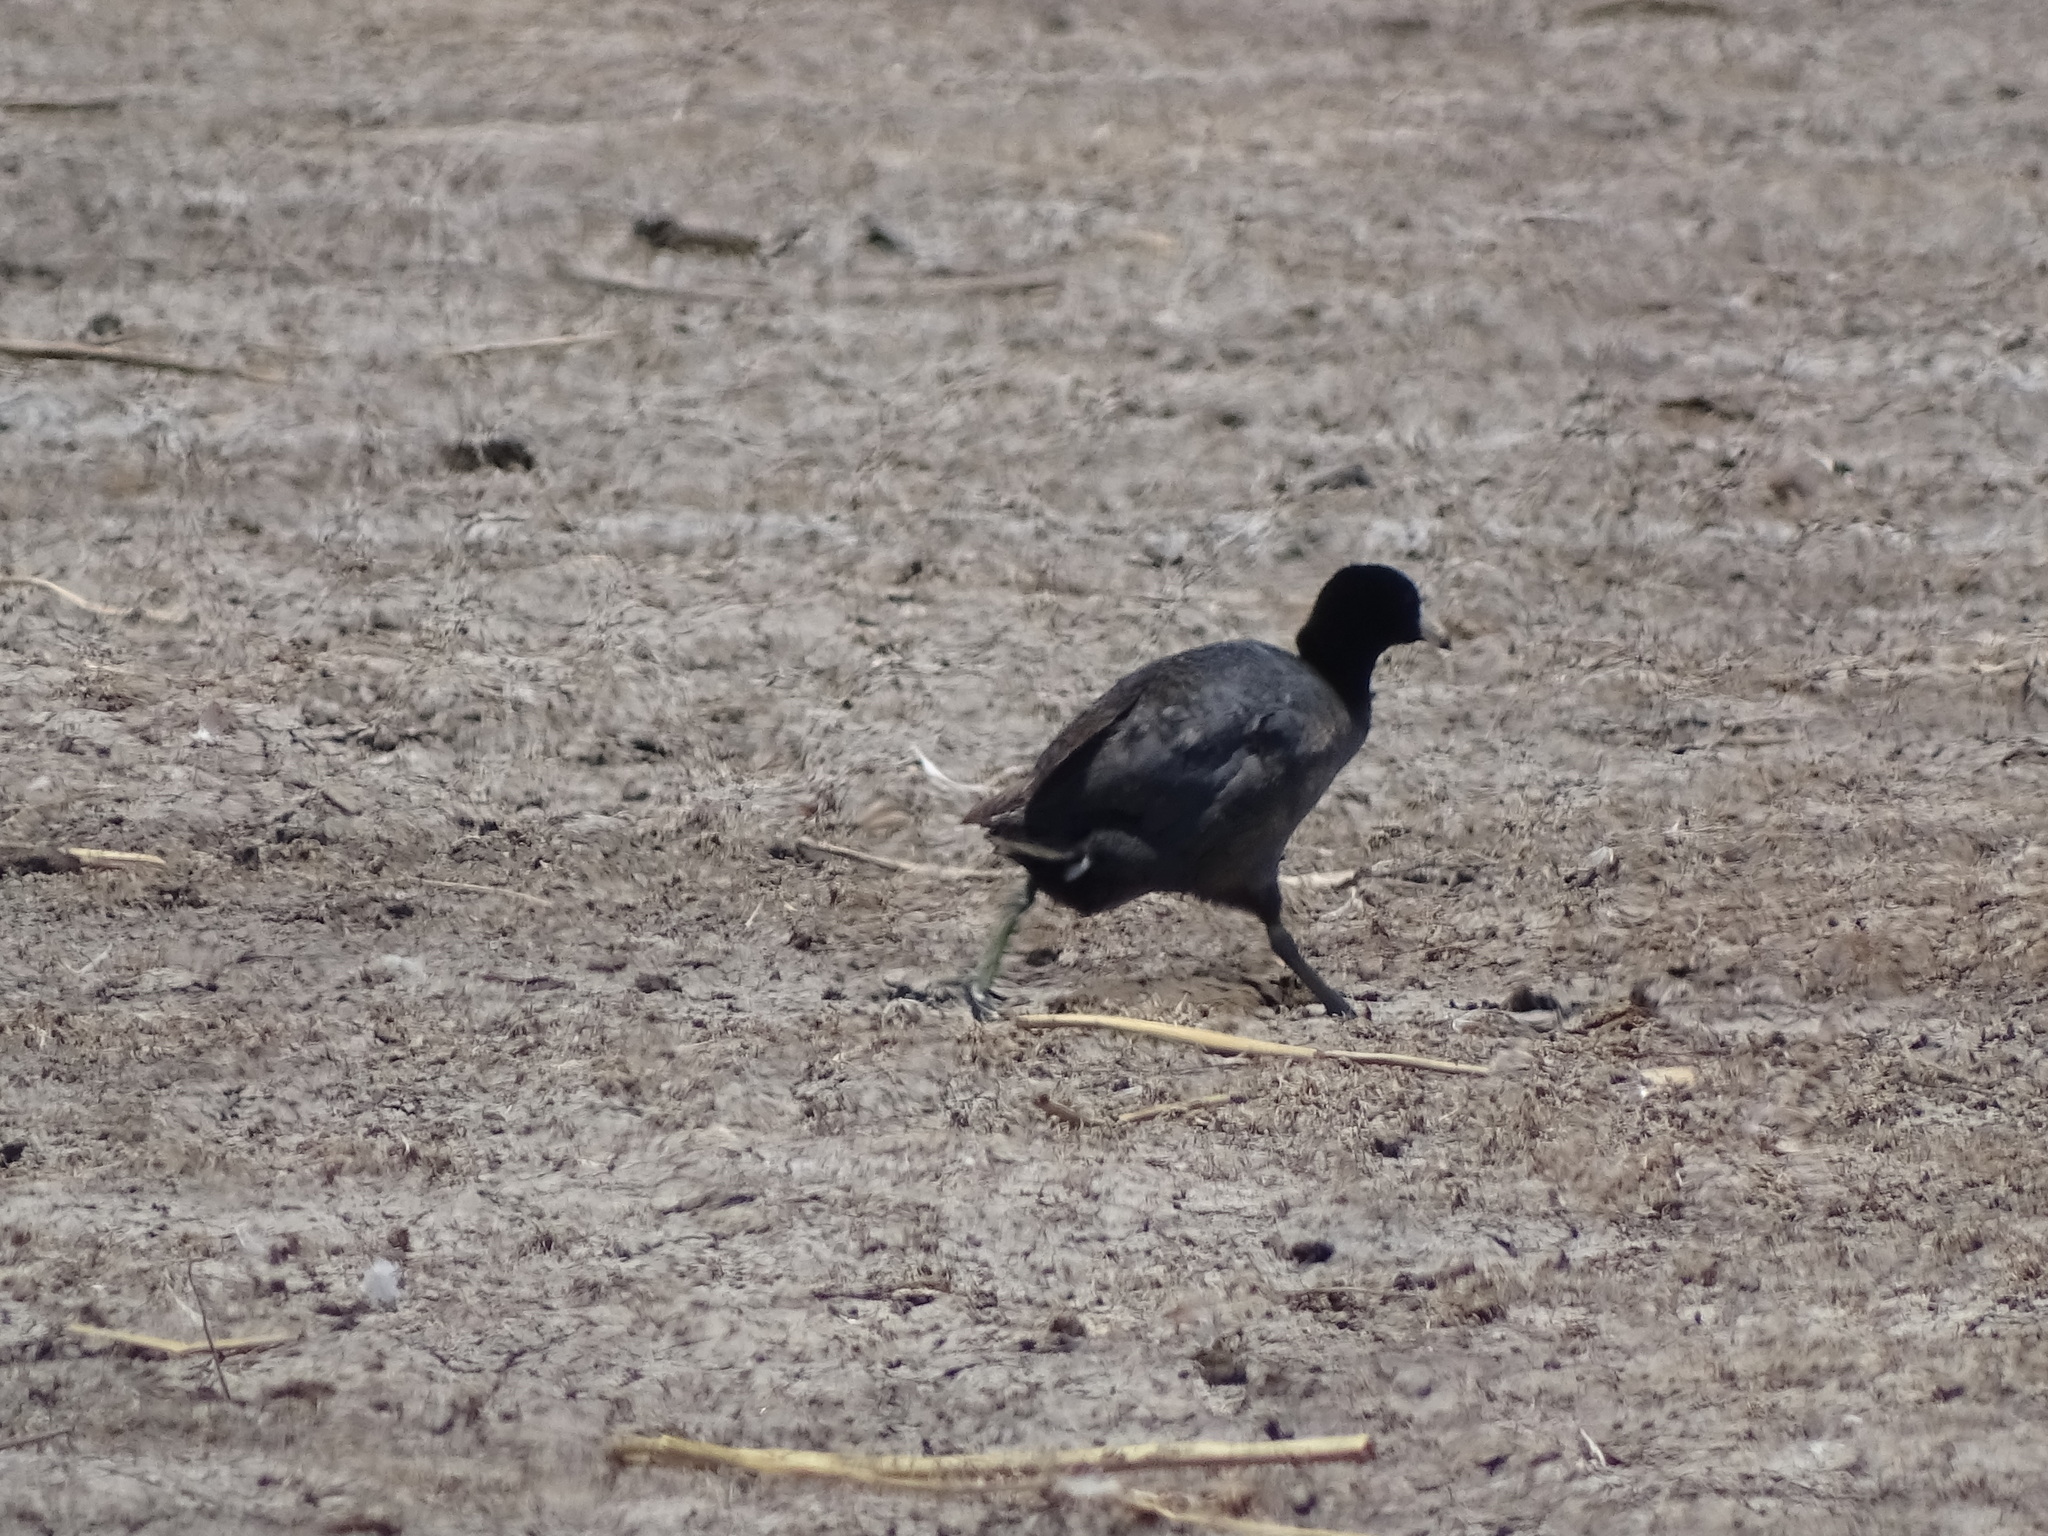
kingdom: Animalia
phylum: Chordata
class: Aves
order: Gruiformes
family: Rallidae
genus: Fulica
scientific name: Fulica americana
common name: American coot
